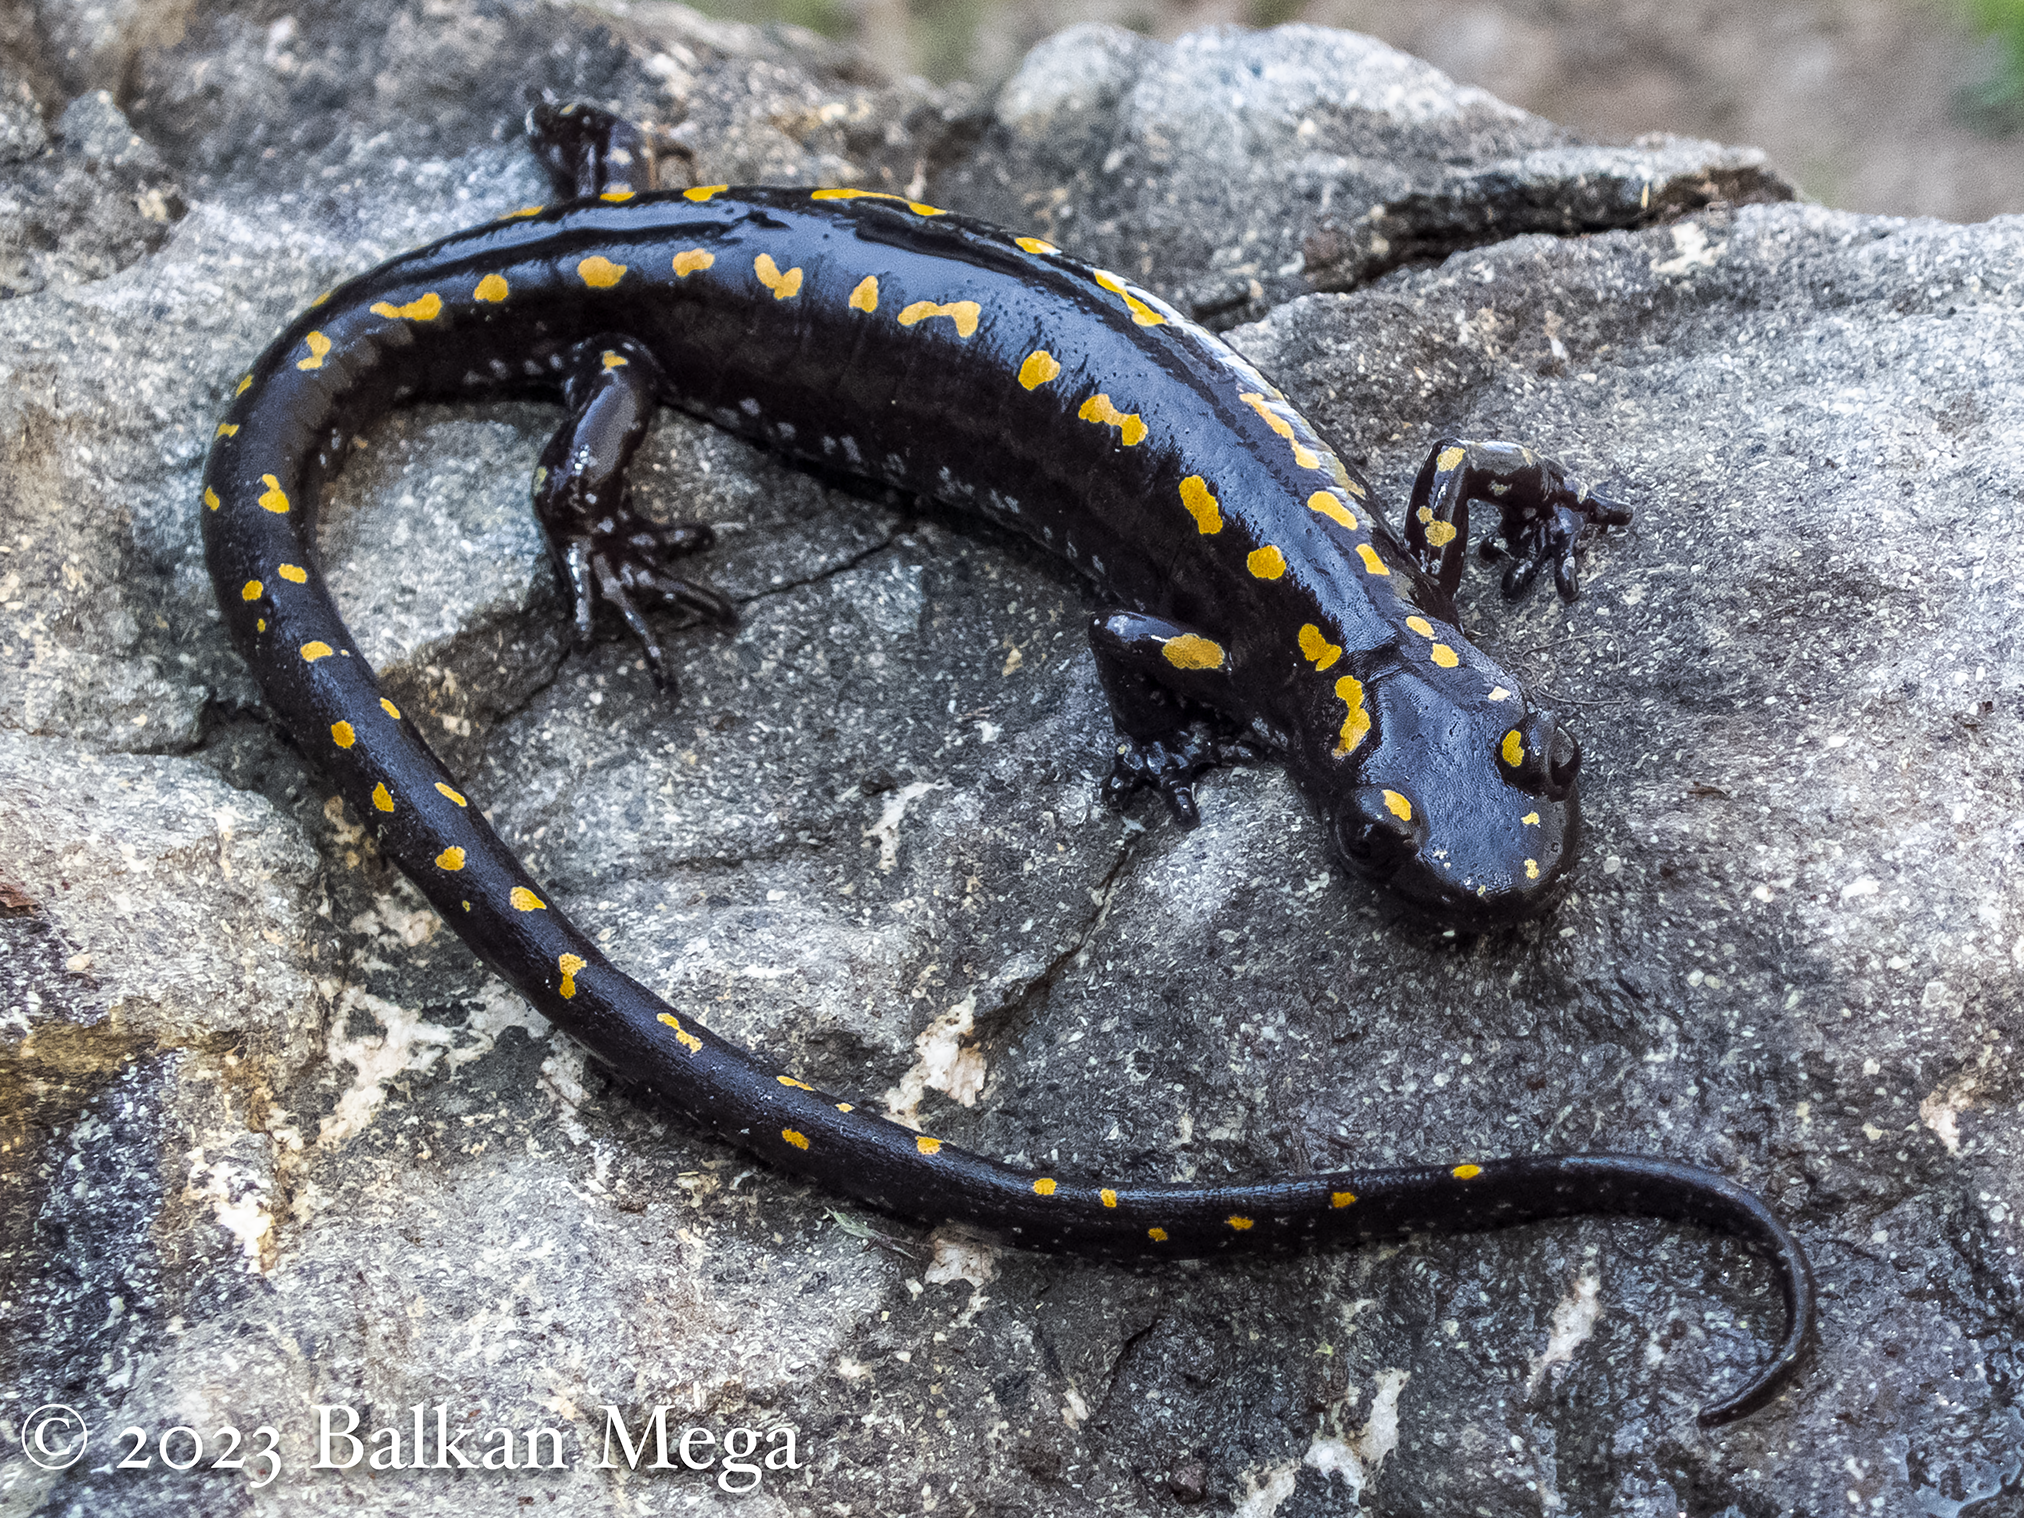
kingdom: Animalia
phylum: Chordata
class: Amphibia
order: Caudata
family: Salamandridae
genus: Mertensiella
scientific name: Mertensiella caucasica
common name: Caucasian salamander
